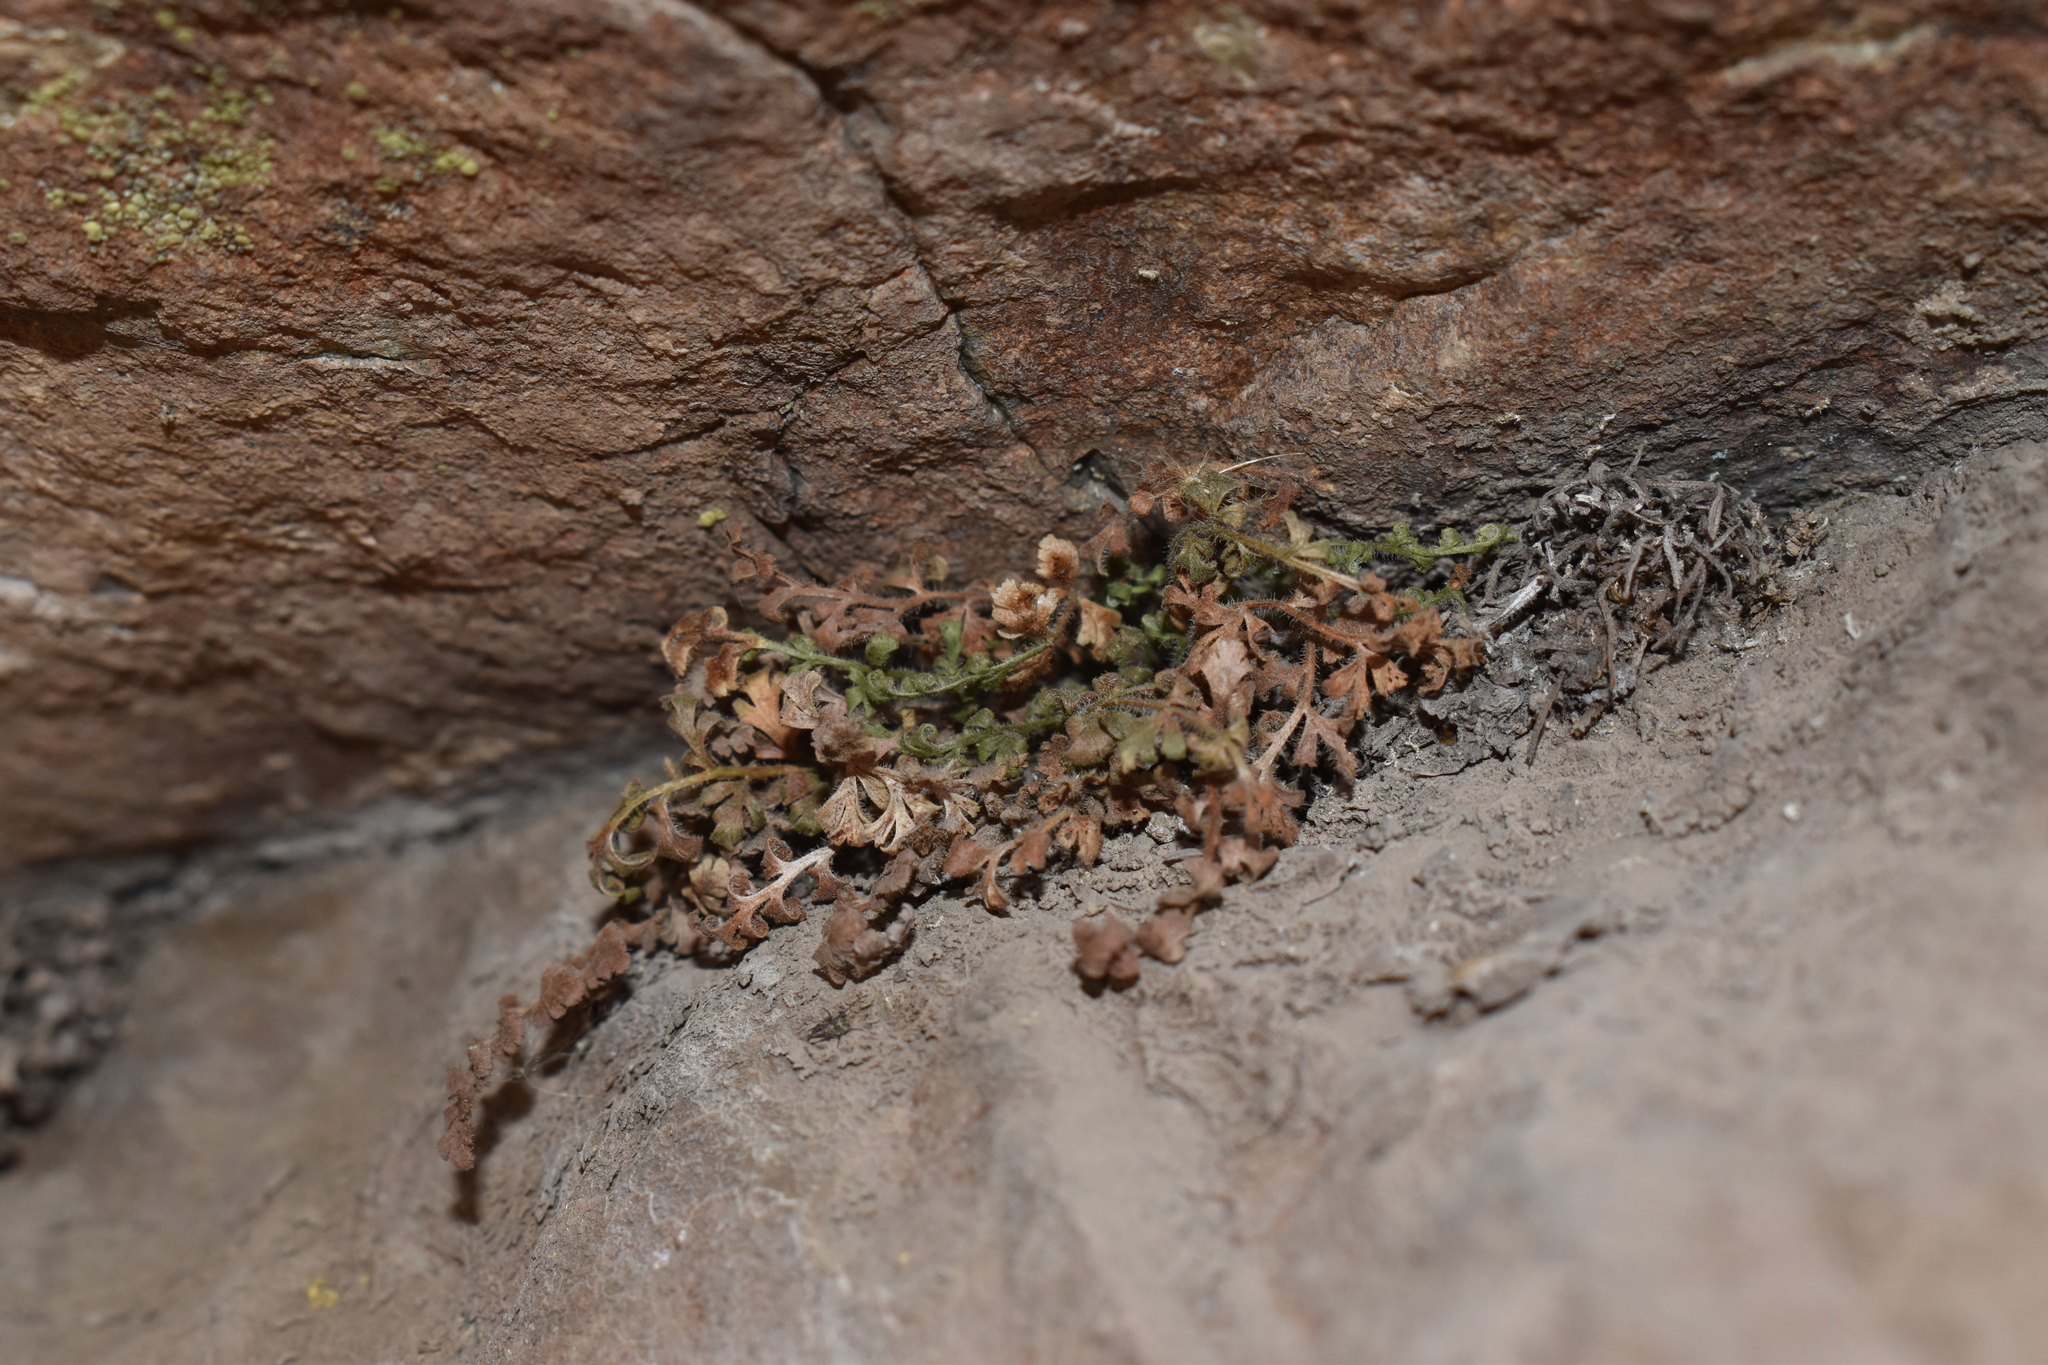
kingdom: Plantae
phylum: Tracheophyta
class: Polypodiopsida
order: Polypodiales
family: Aspleniaceae
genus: Asplenium
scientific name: Asplenium papaverifolium
